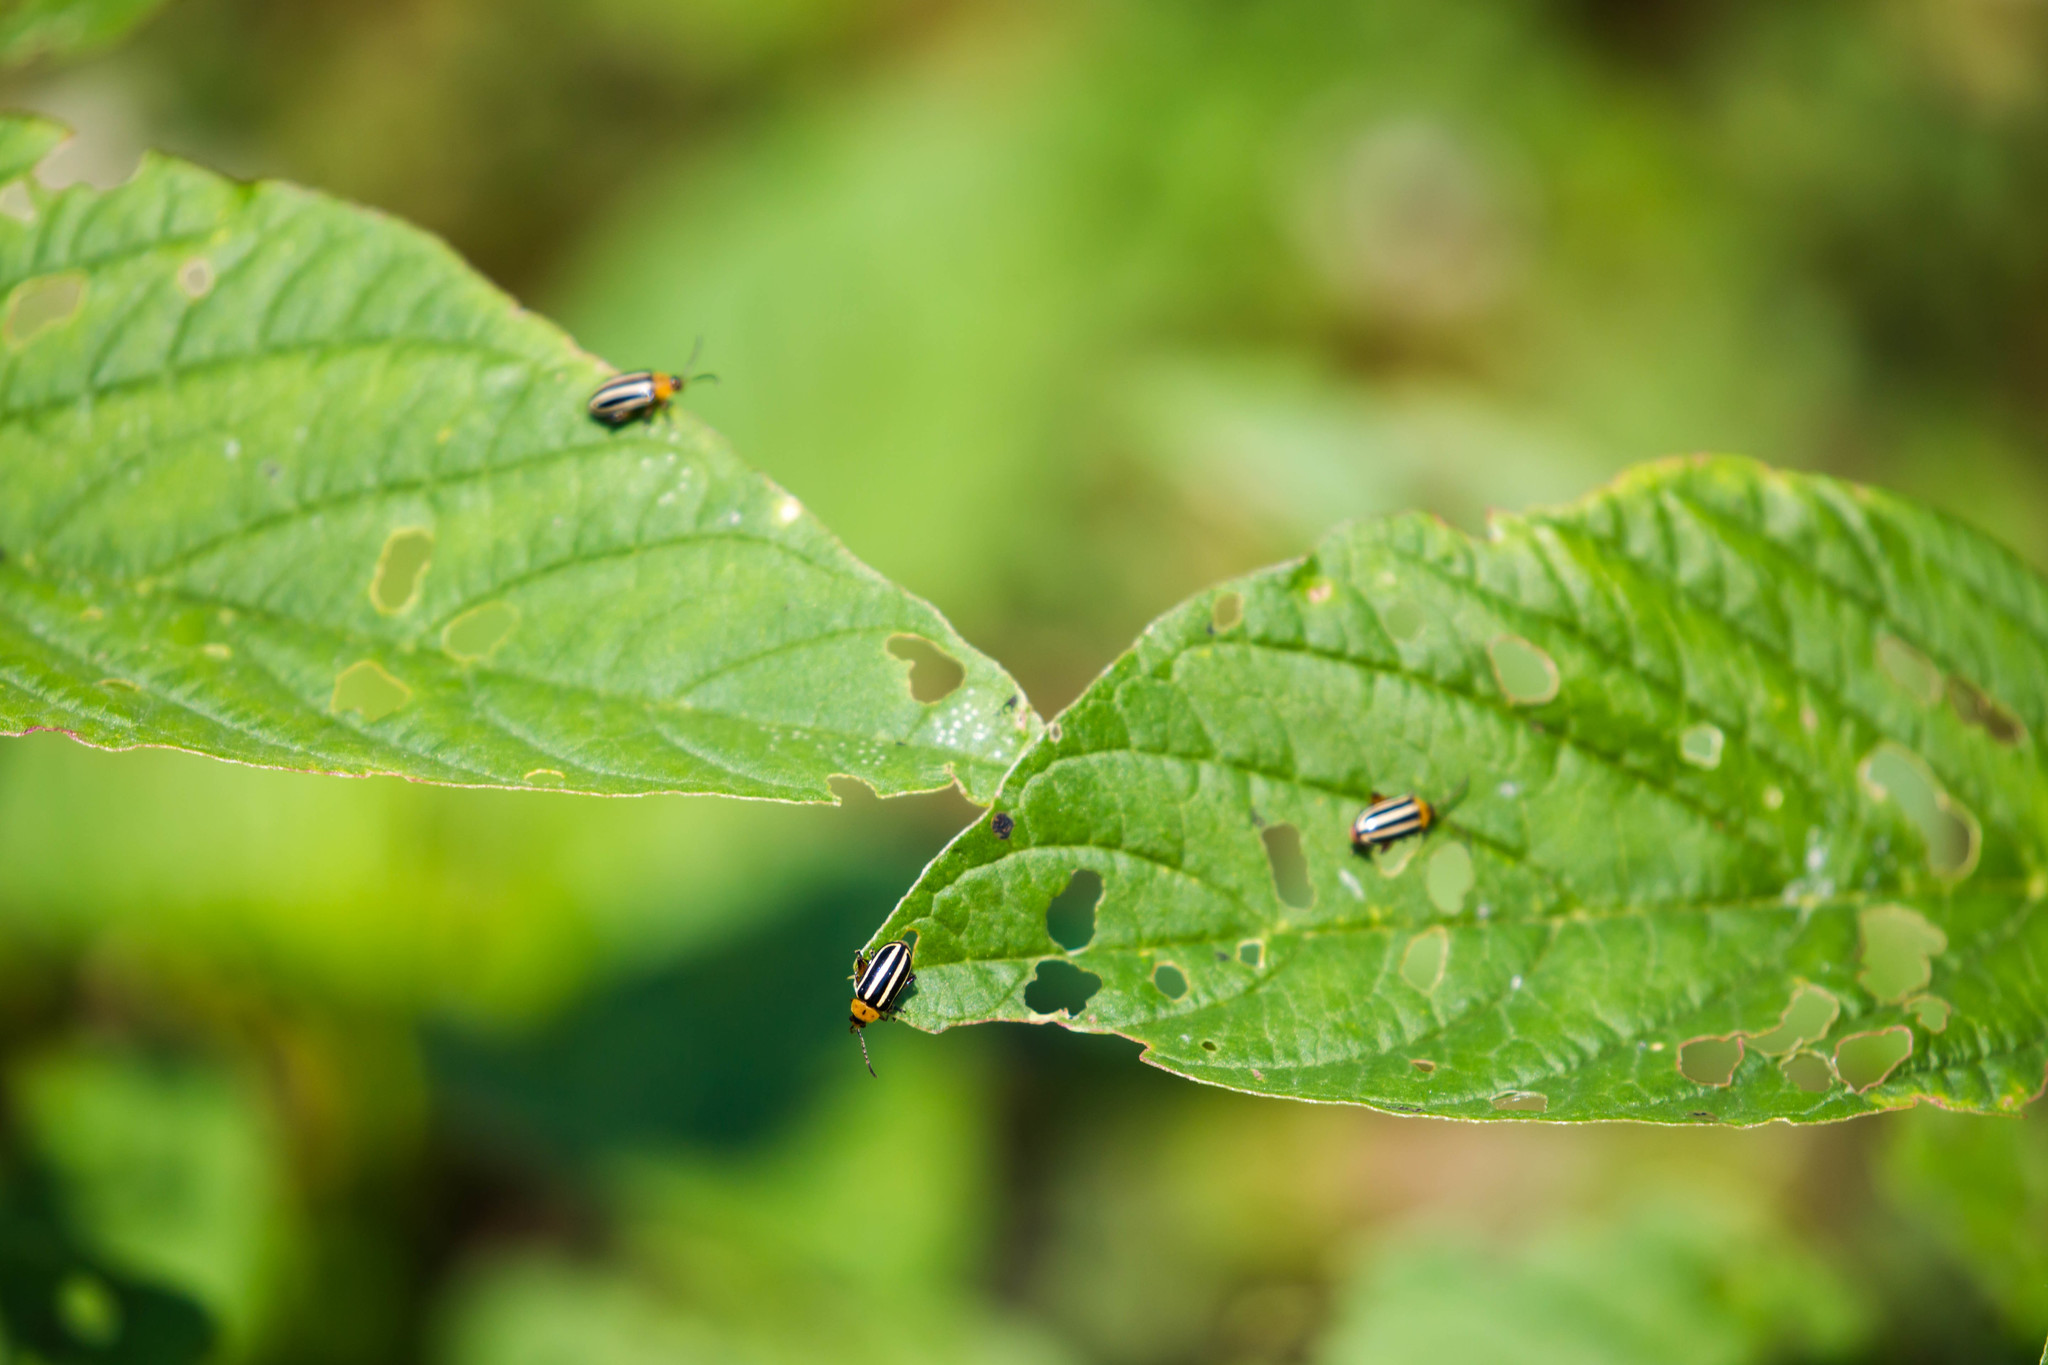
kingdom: Animalia
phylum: Arthropoda
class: Insecta
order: Coleoptera
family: Chrysomelidae
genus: Disonycha
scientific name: Disonycha glabrata
